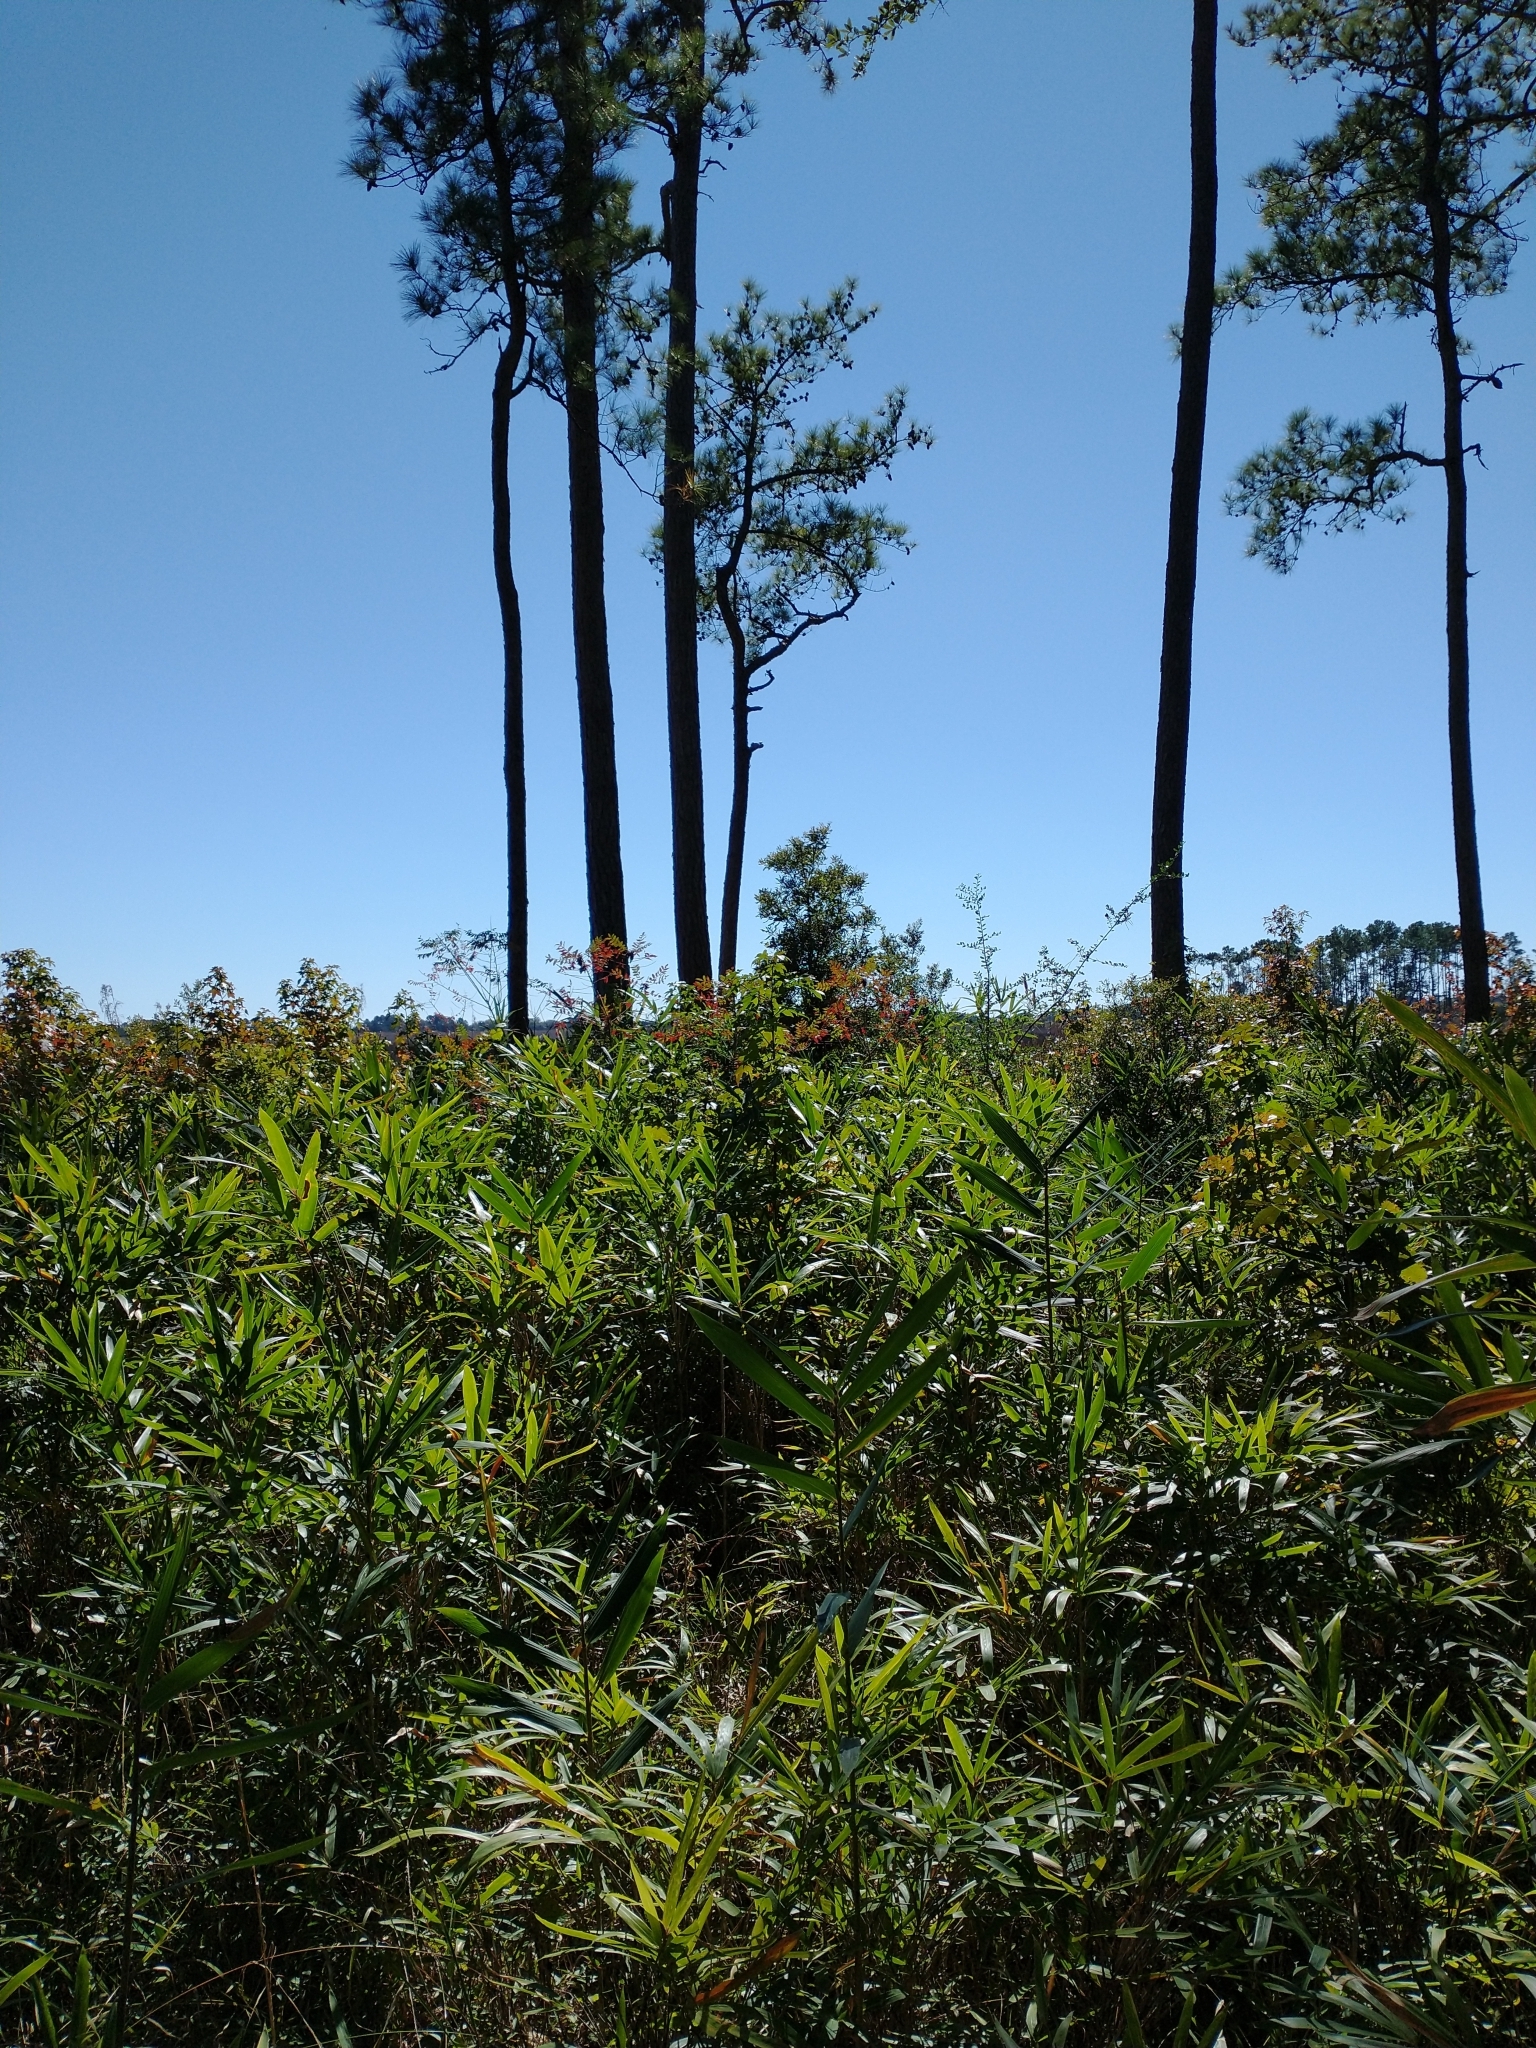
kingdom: Plantae
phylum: Tracheophyta
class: Liliopsida
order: Poales
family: Poaceae
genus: Arundinaria
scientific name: Arundinaria tecta
